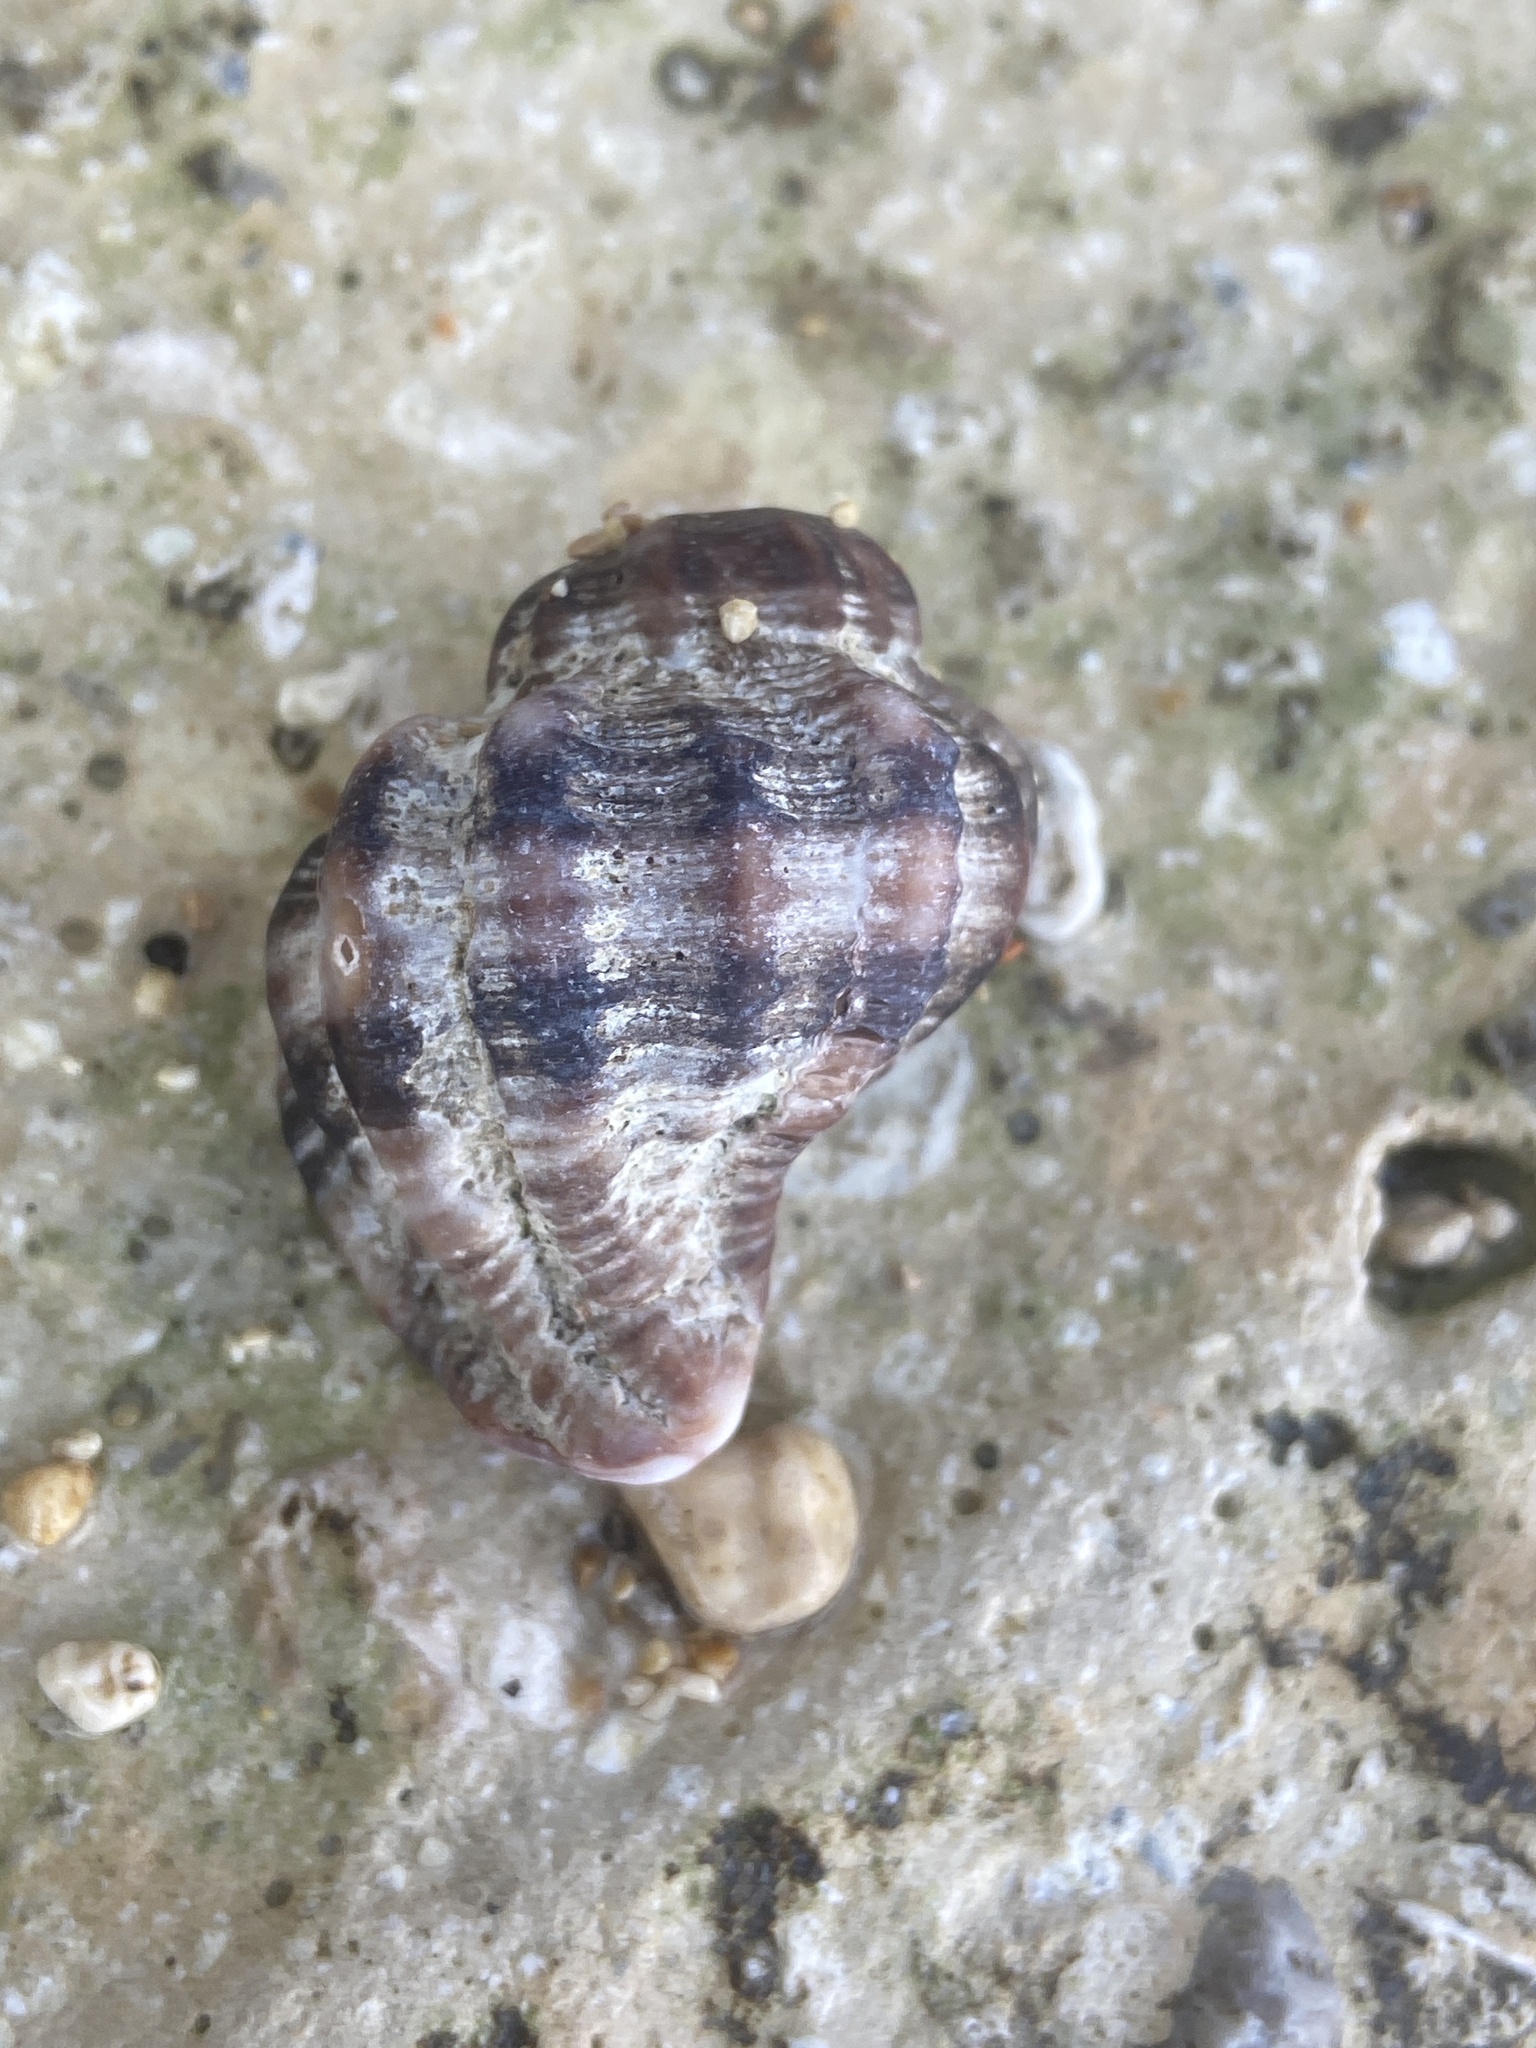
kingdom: Animalia
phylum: Mollusca
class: Gastropoda
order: Neogastropoda
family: Muricidae
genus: Hexaplex
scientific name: Hexaplex trunculus
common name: Banded dye-murex
